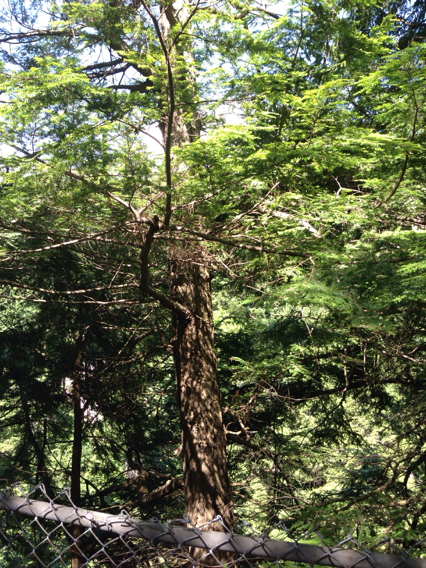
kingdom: Plantae
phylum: Tracheophyta
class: Pinopsida
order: Pinales
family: Pinaceae
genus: Tsuga
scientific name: Tsuga canadensis
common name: Eastern hemlock
